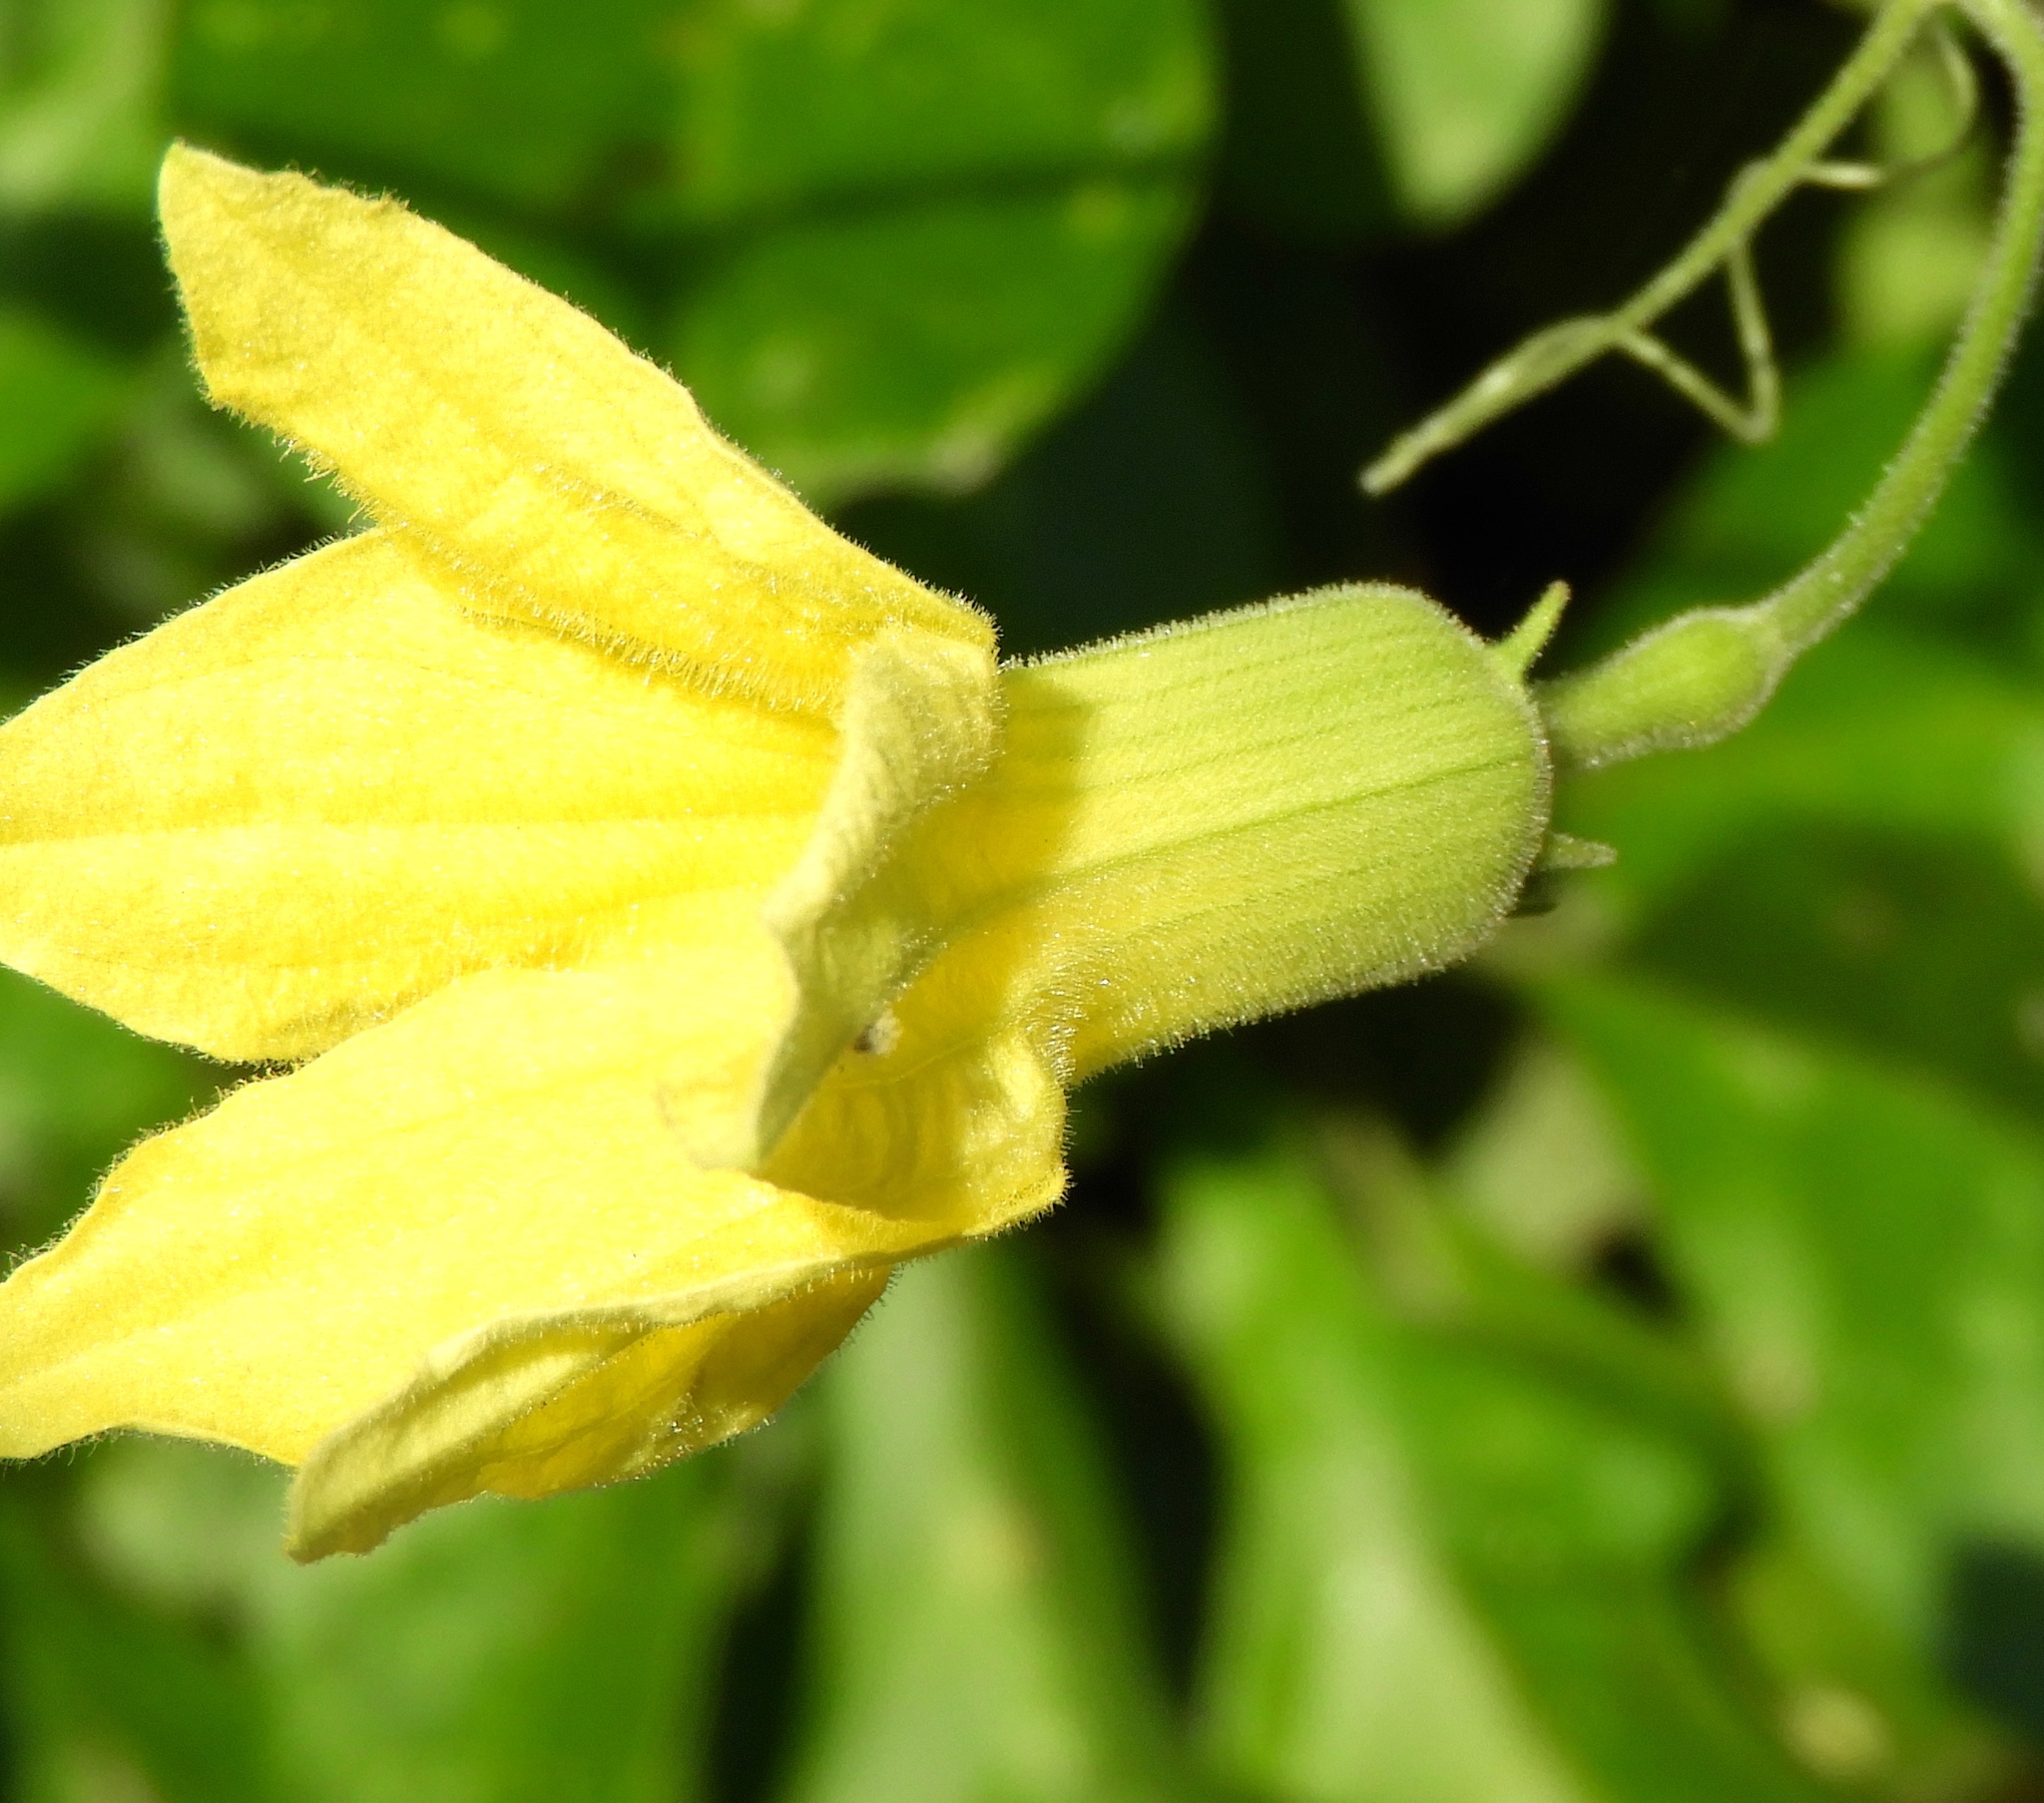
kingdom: Plantae
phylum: Tracheophyta
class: Magnoliopsida
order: Cucurbitales
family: Cucurbitaceae
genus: Schizocarpum
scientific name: Schizocarpum palmeri
